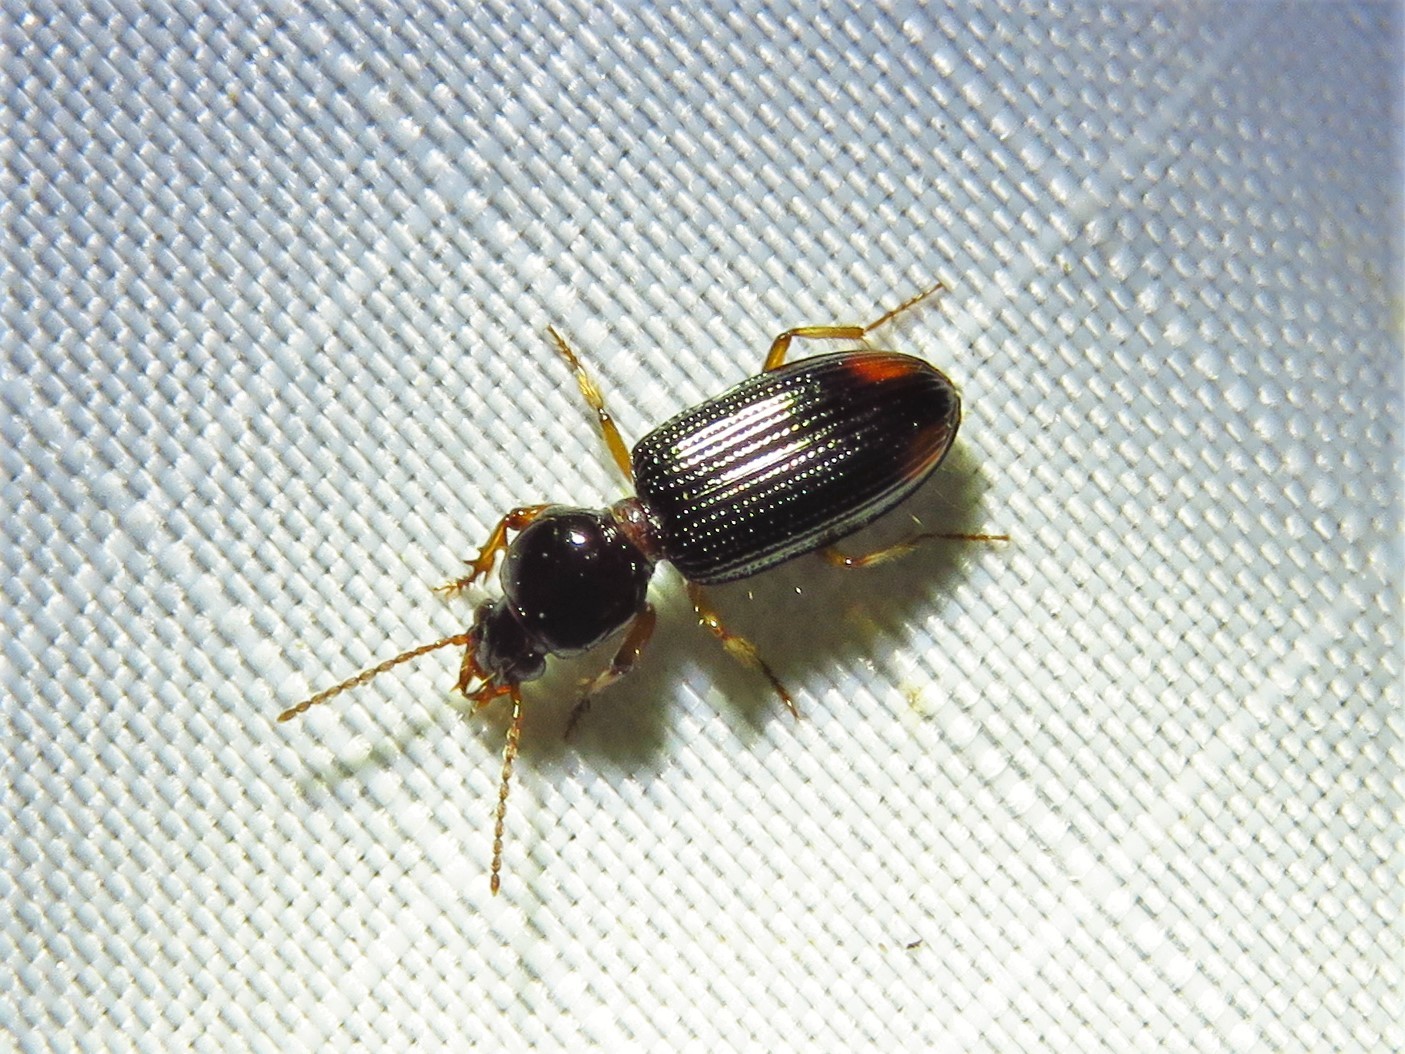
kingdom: Animalia
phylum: Arthropoda
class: Insecta
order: Coleoptera
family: Carabidae
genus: Aspidoglossa
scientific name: Aspidoglossa subangulata
